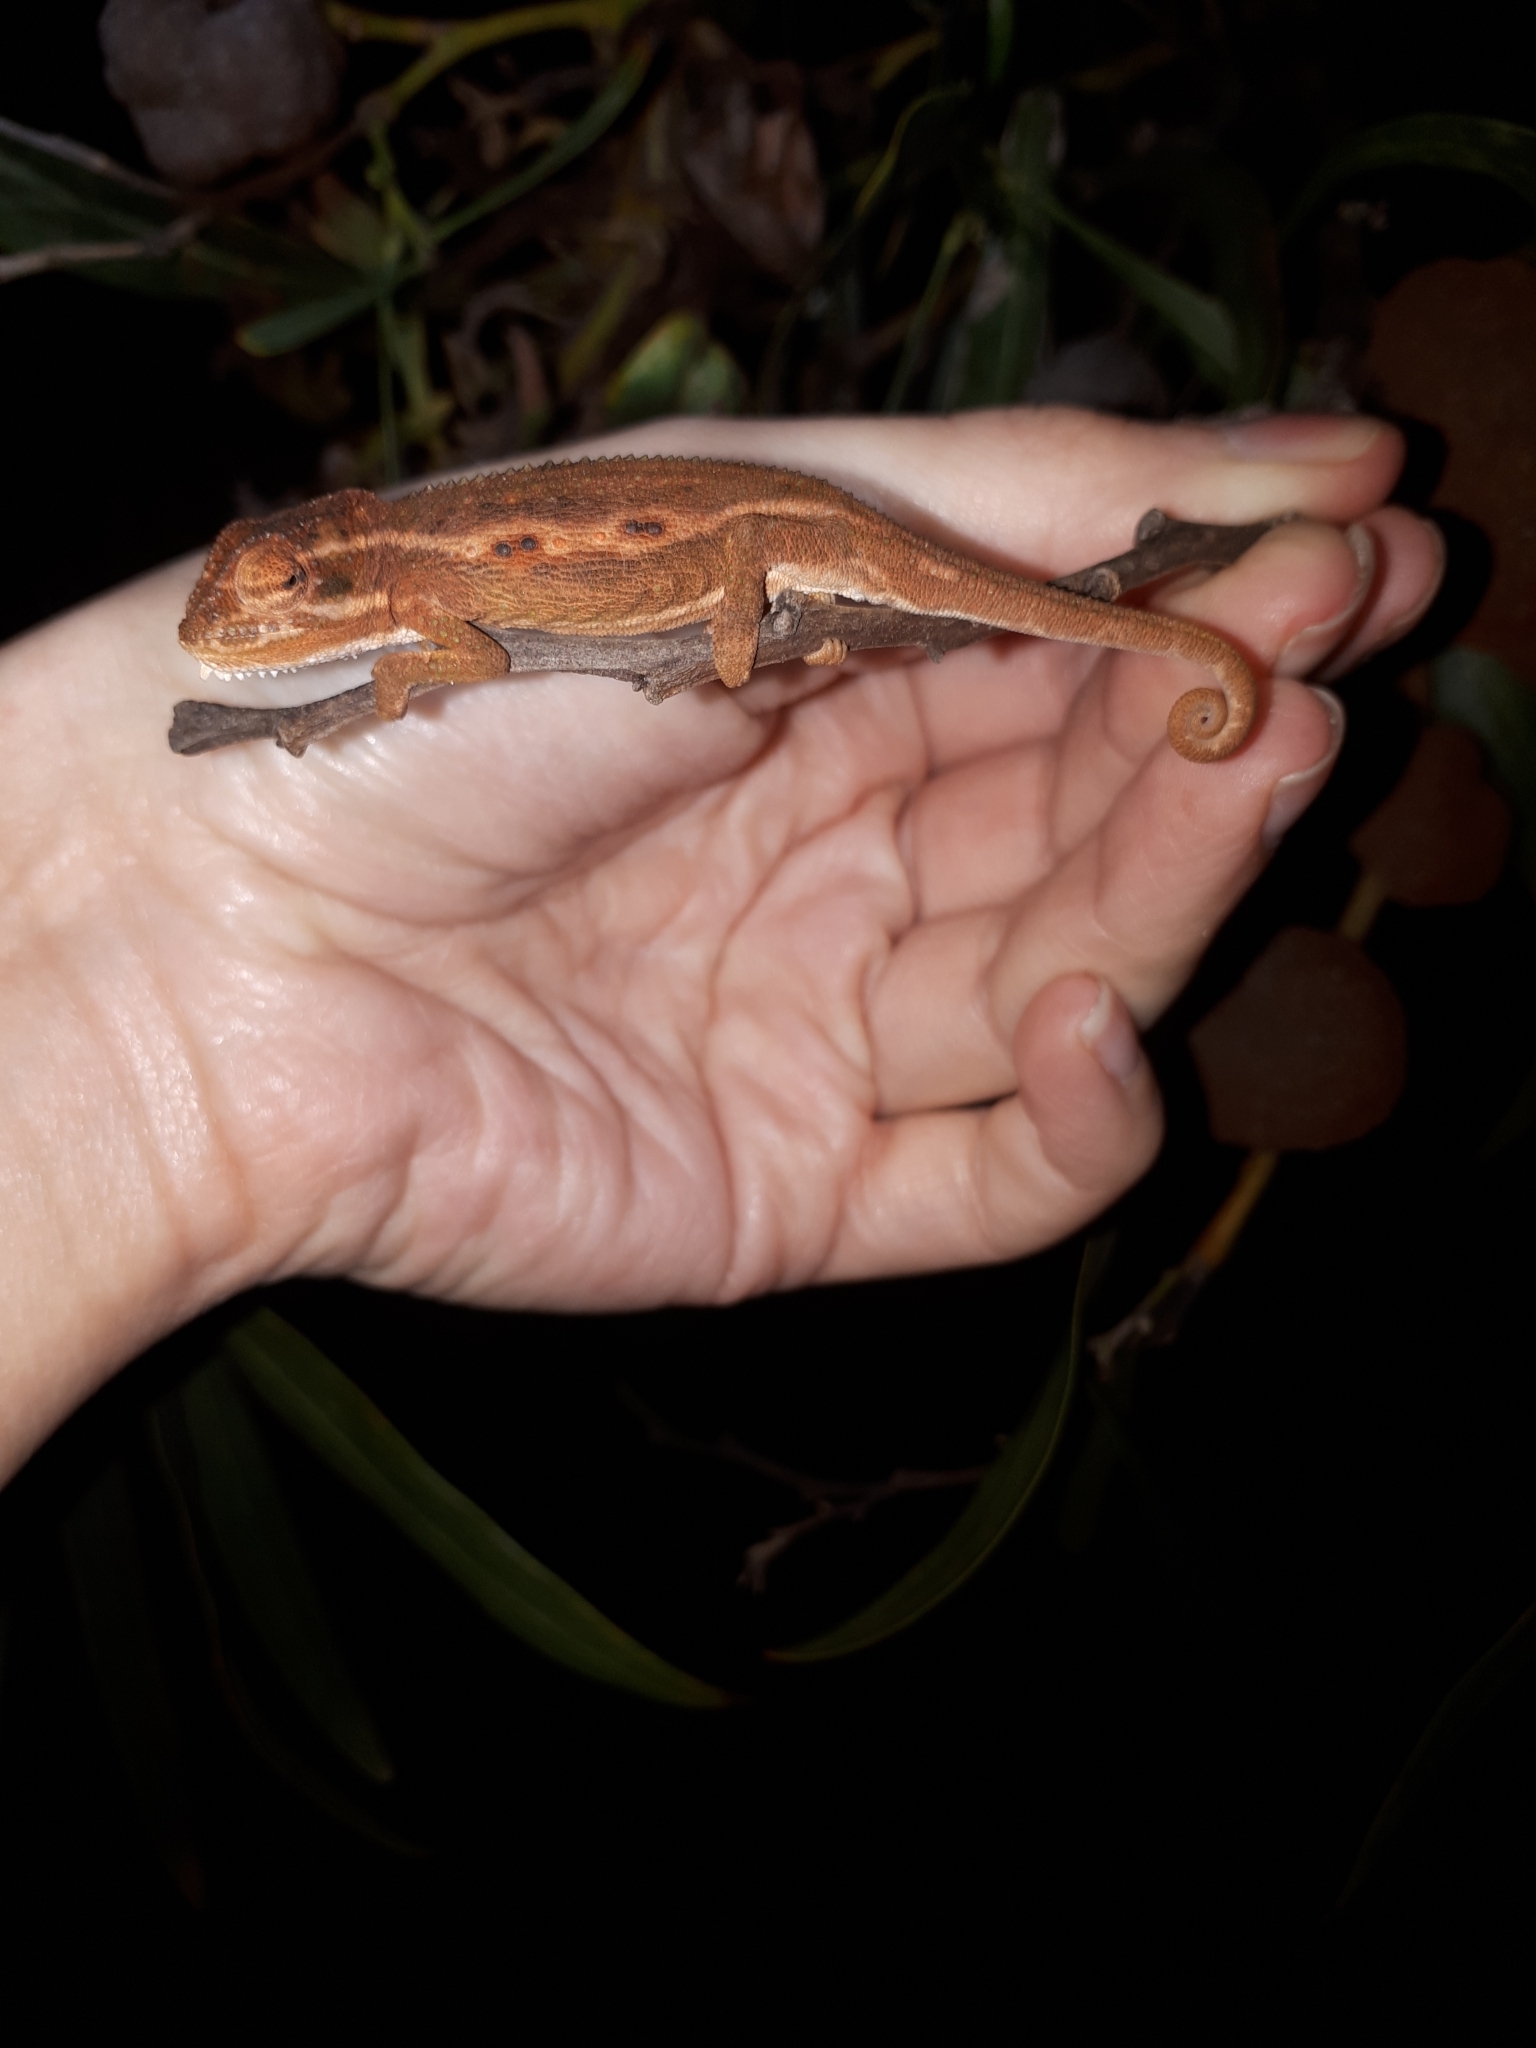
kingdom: Animalia
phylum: Chordata
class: Squamata
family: Chamaeleonidae
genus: Bradypodion
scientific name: Bradypodion pumilum
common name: Cape dwarf chameleon
